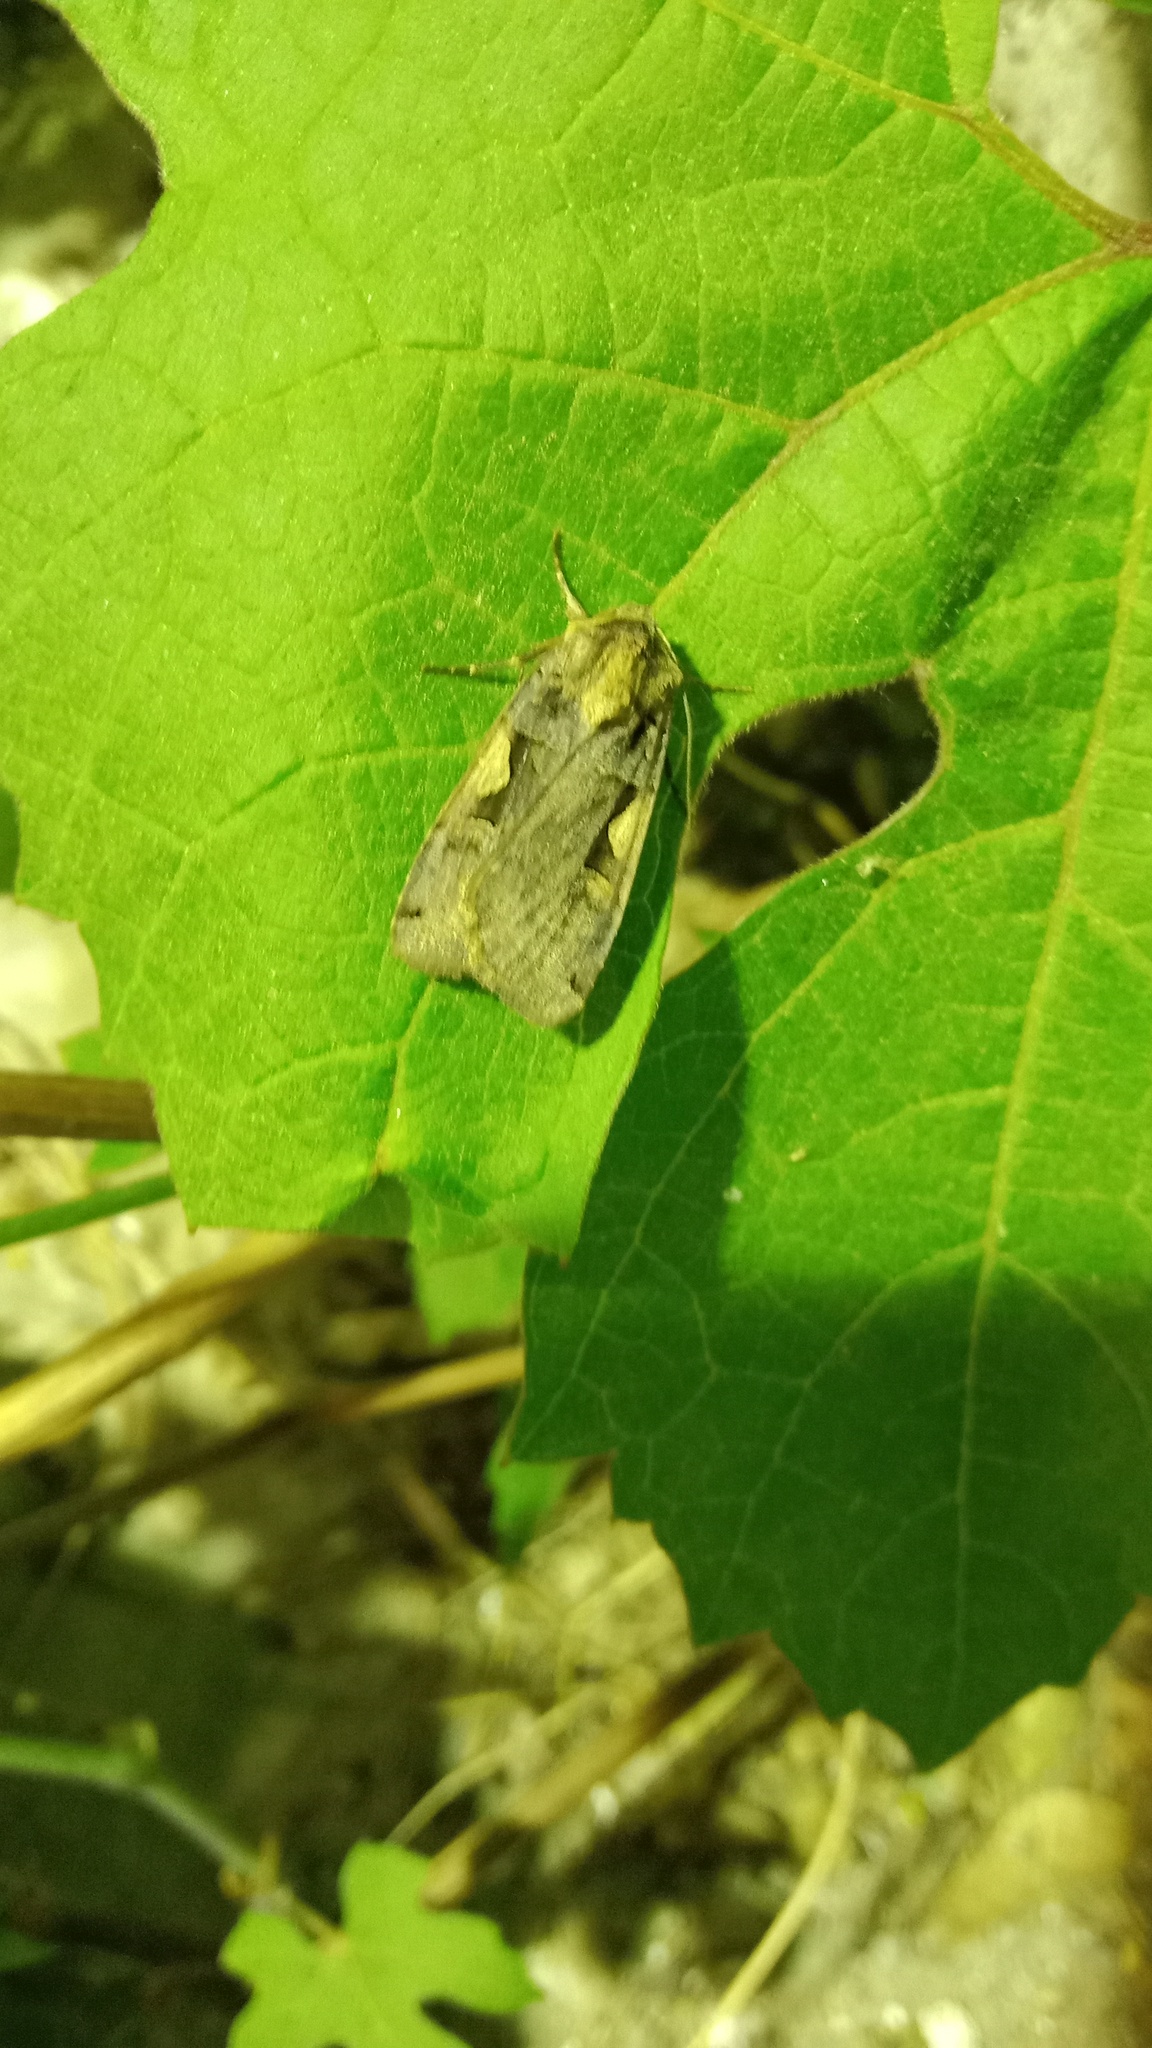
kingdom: Animalia
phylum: Arthropoda
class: Insecta
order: Lepidoptera
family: Noctuidae
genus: Xestia
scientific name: Xestia c-nigrum
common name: Setaceous hebrew character
